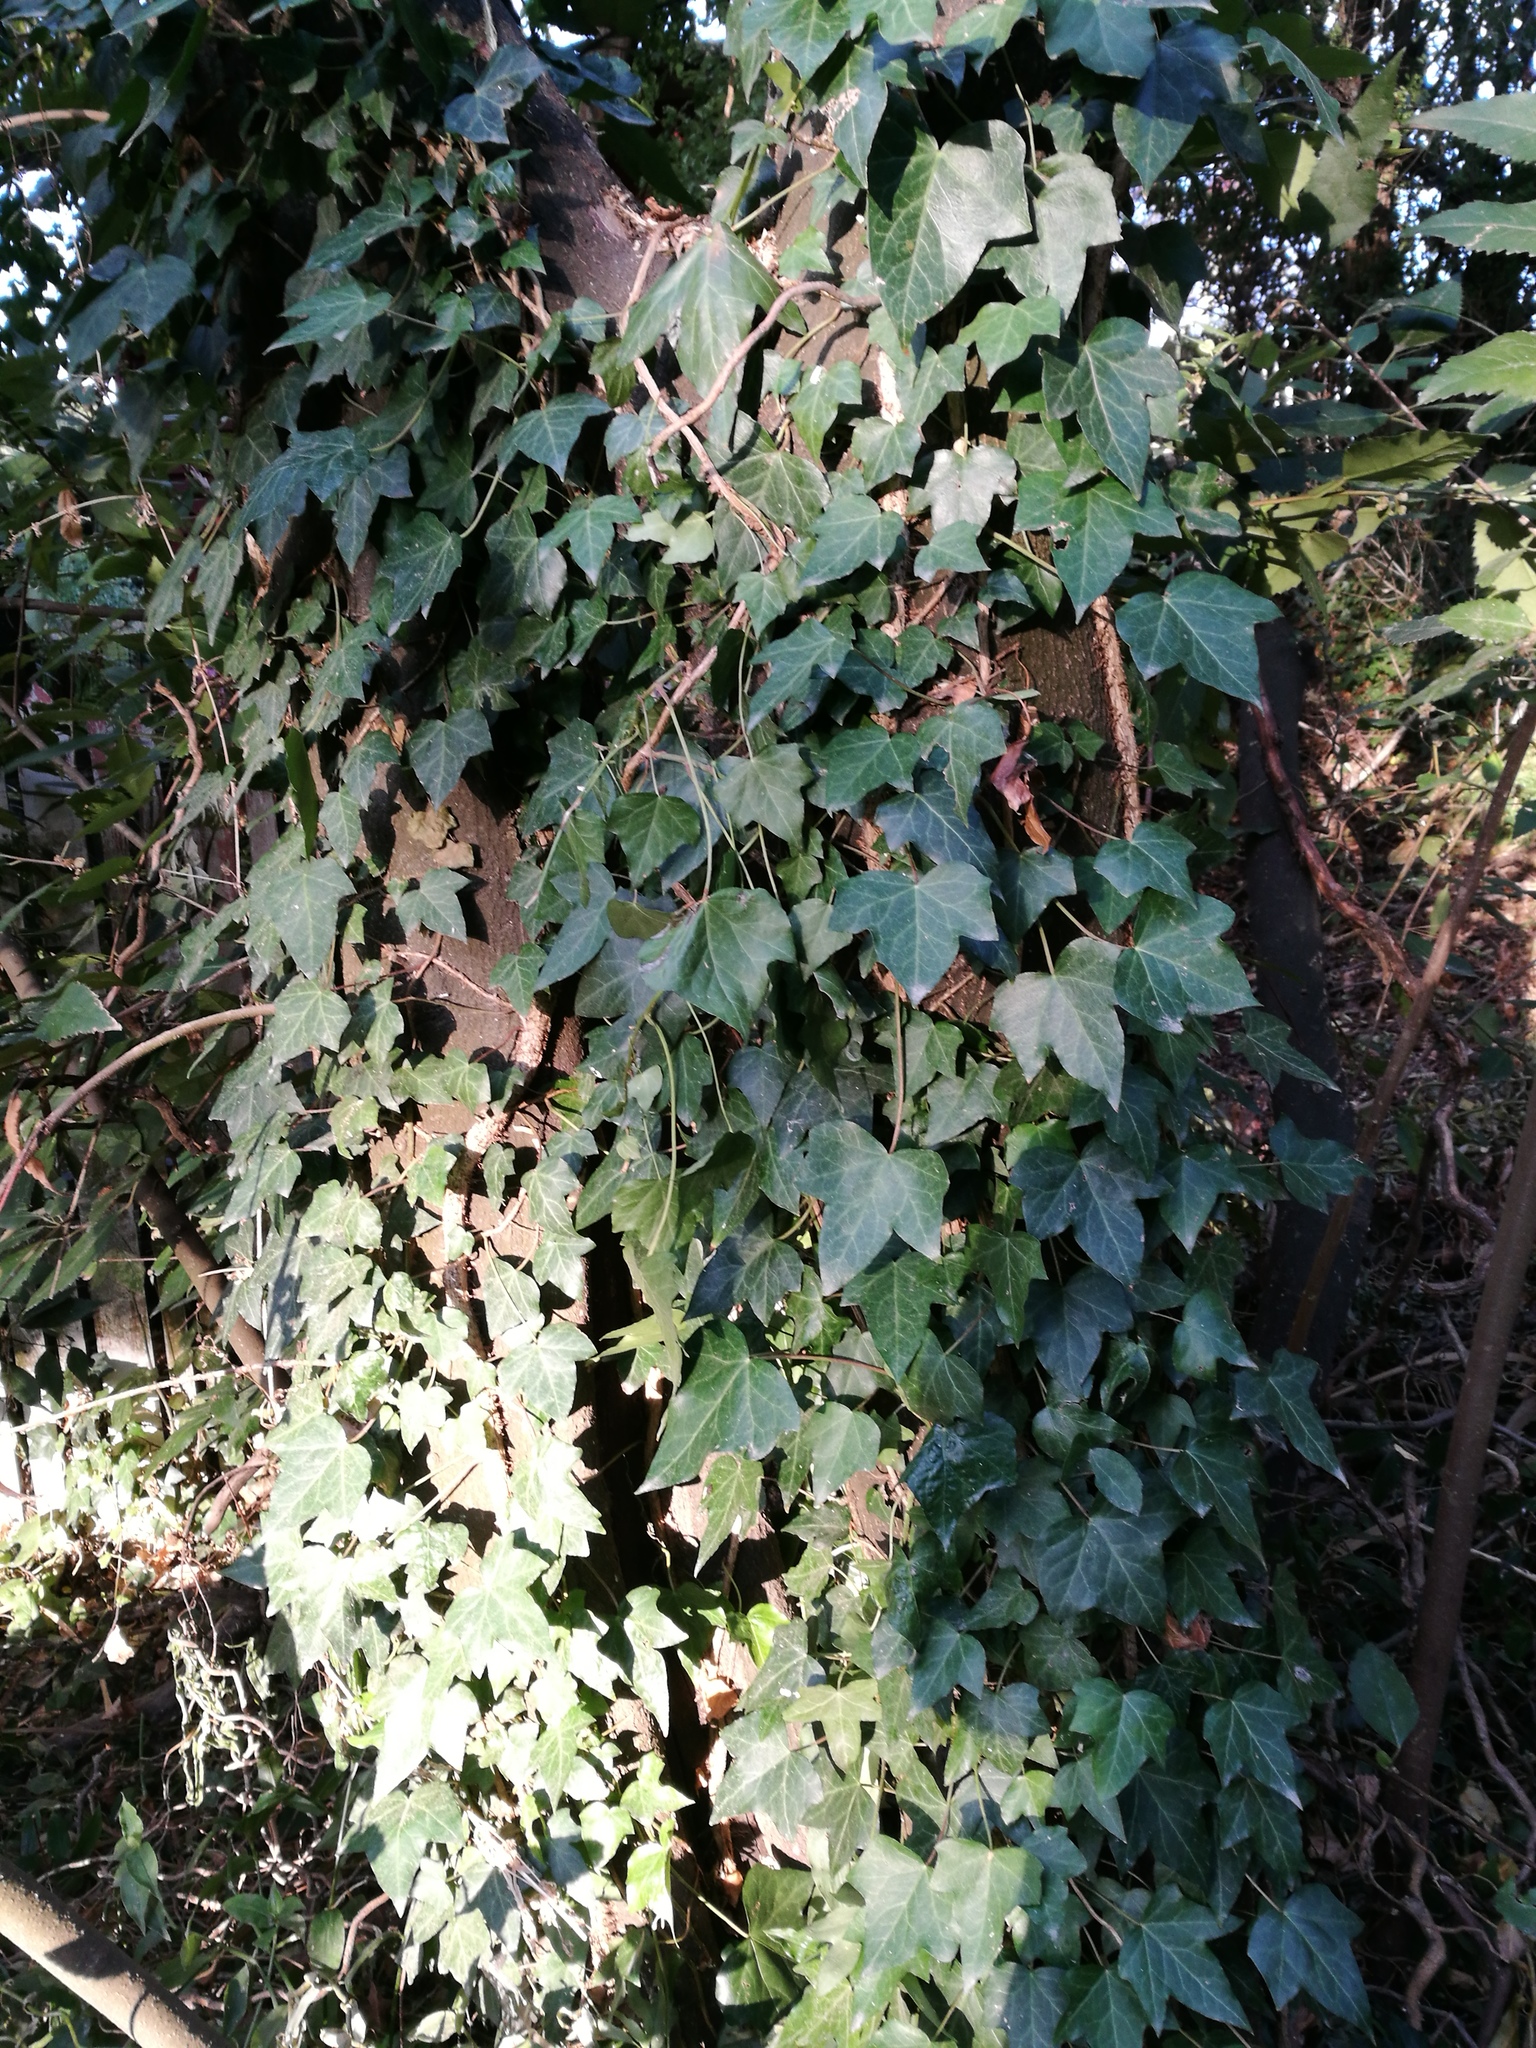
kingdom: Plantae
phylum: Tracheophyta
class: Magnoliopsida
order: Apiales
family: Araliaceae
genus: Hedera
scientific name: Hedera helix
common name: Ivy
